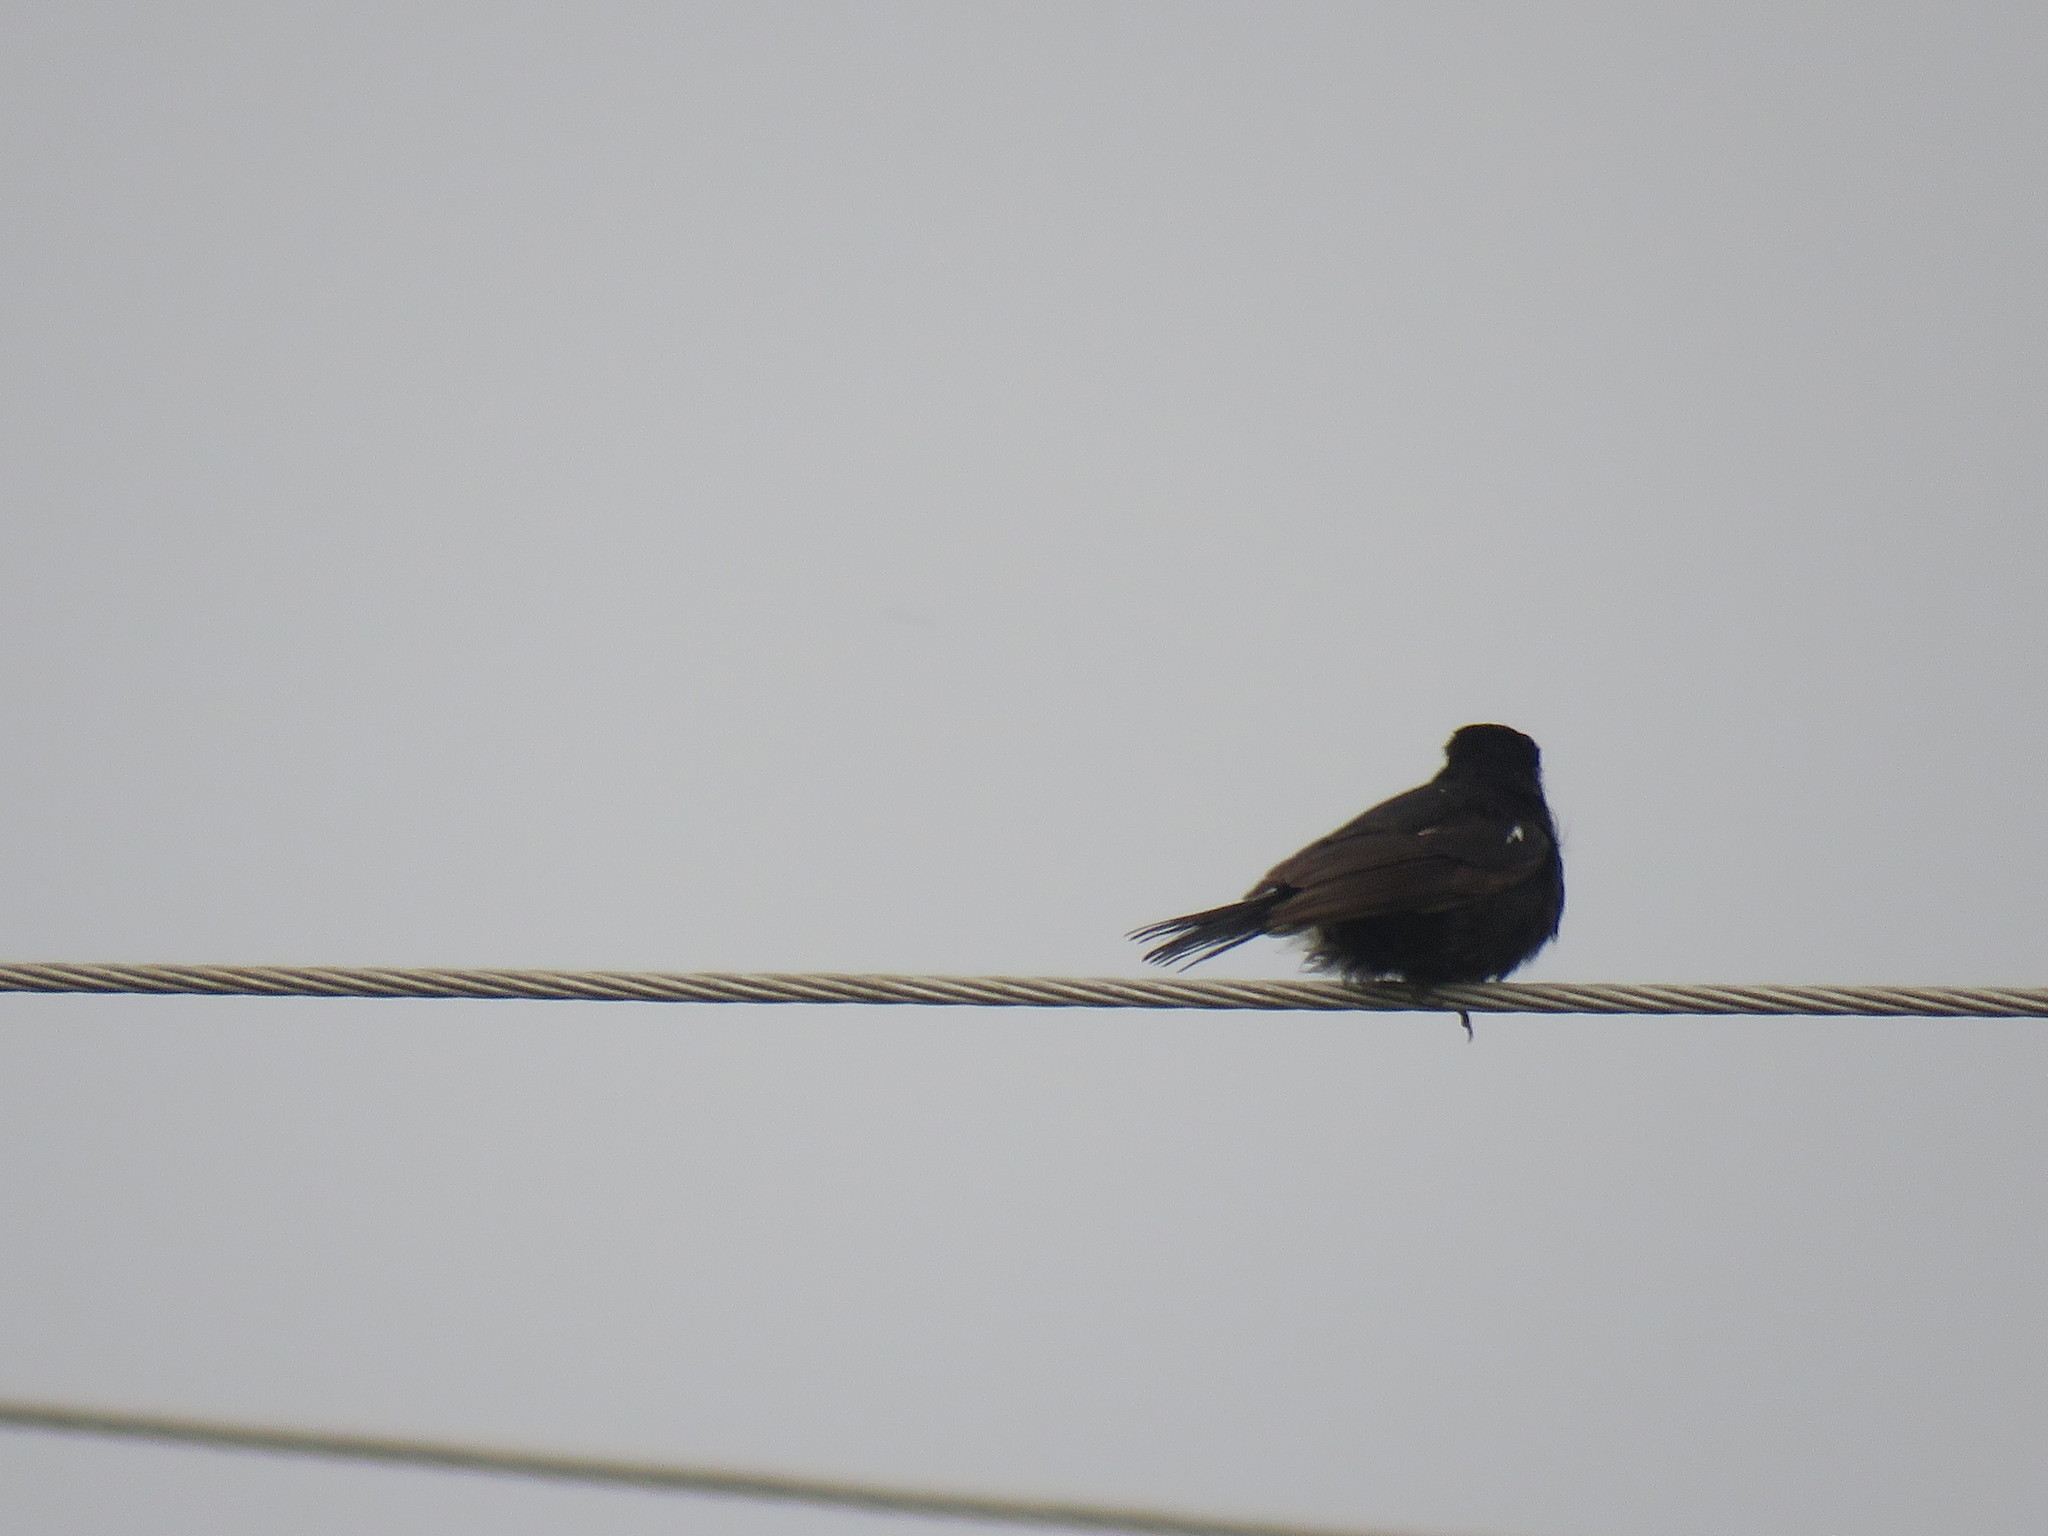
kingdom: Animalia
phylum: Chordata
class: Aves
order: Passeriformes
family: Muscicapidae
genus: Saxicola
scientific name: Saxicola caprata
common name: Pied bush chat
